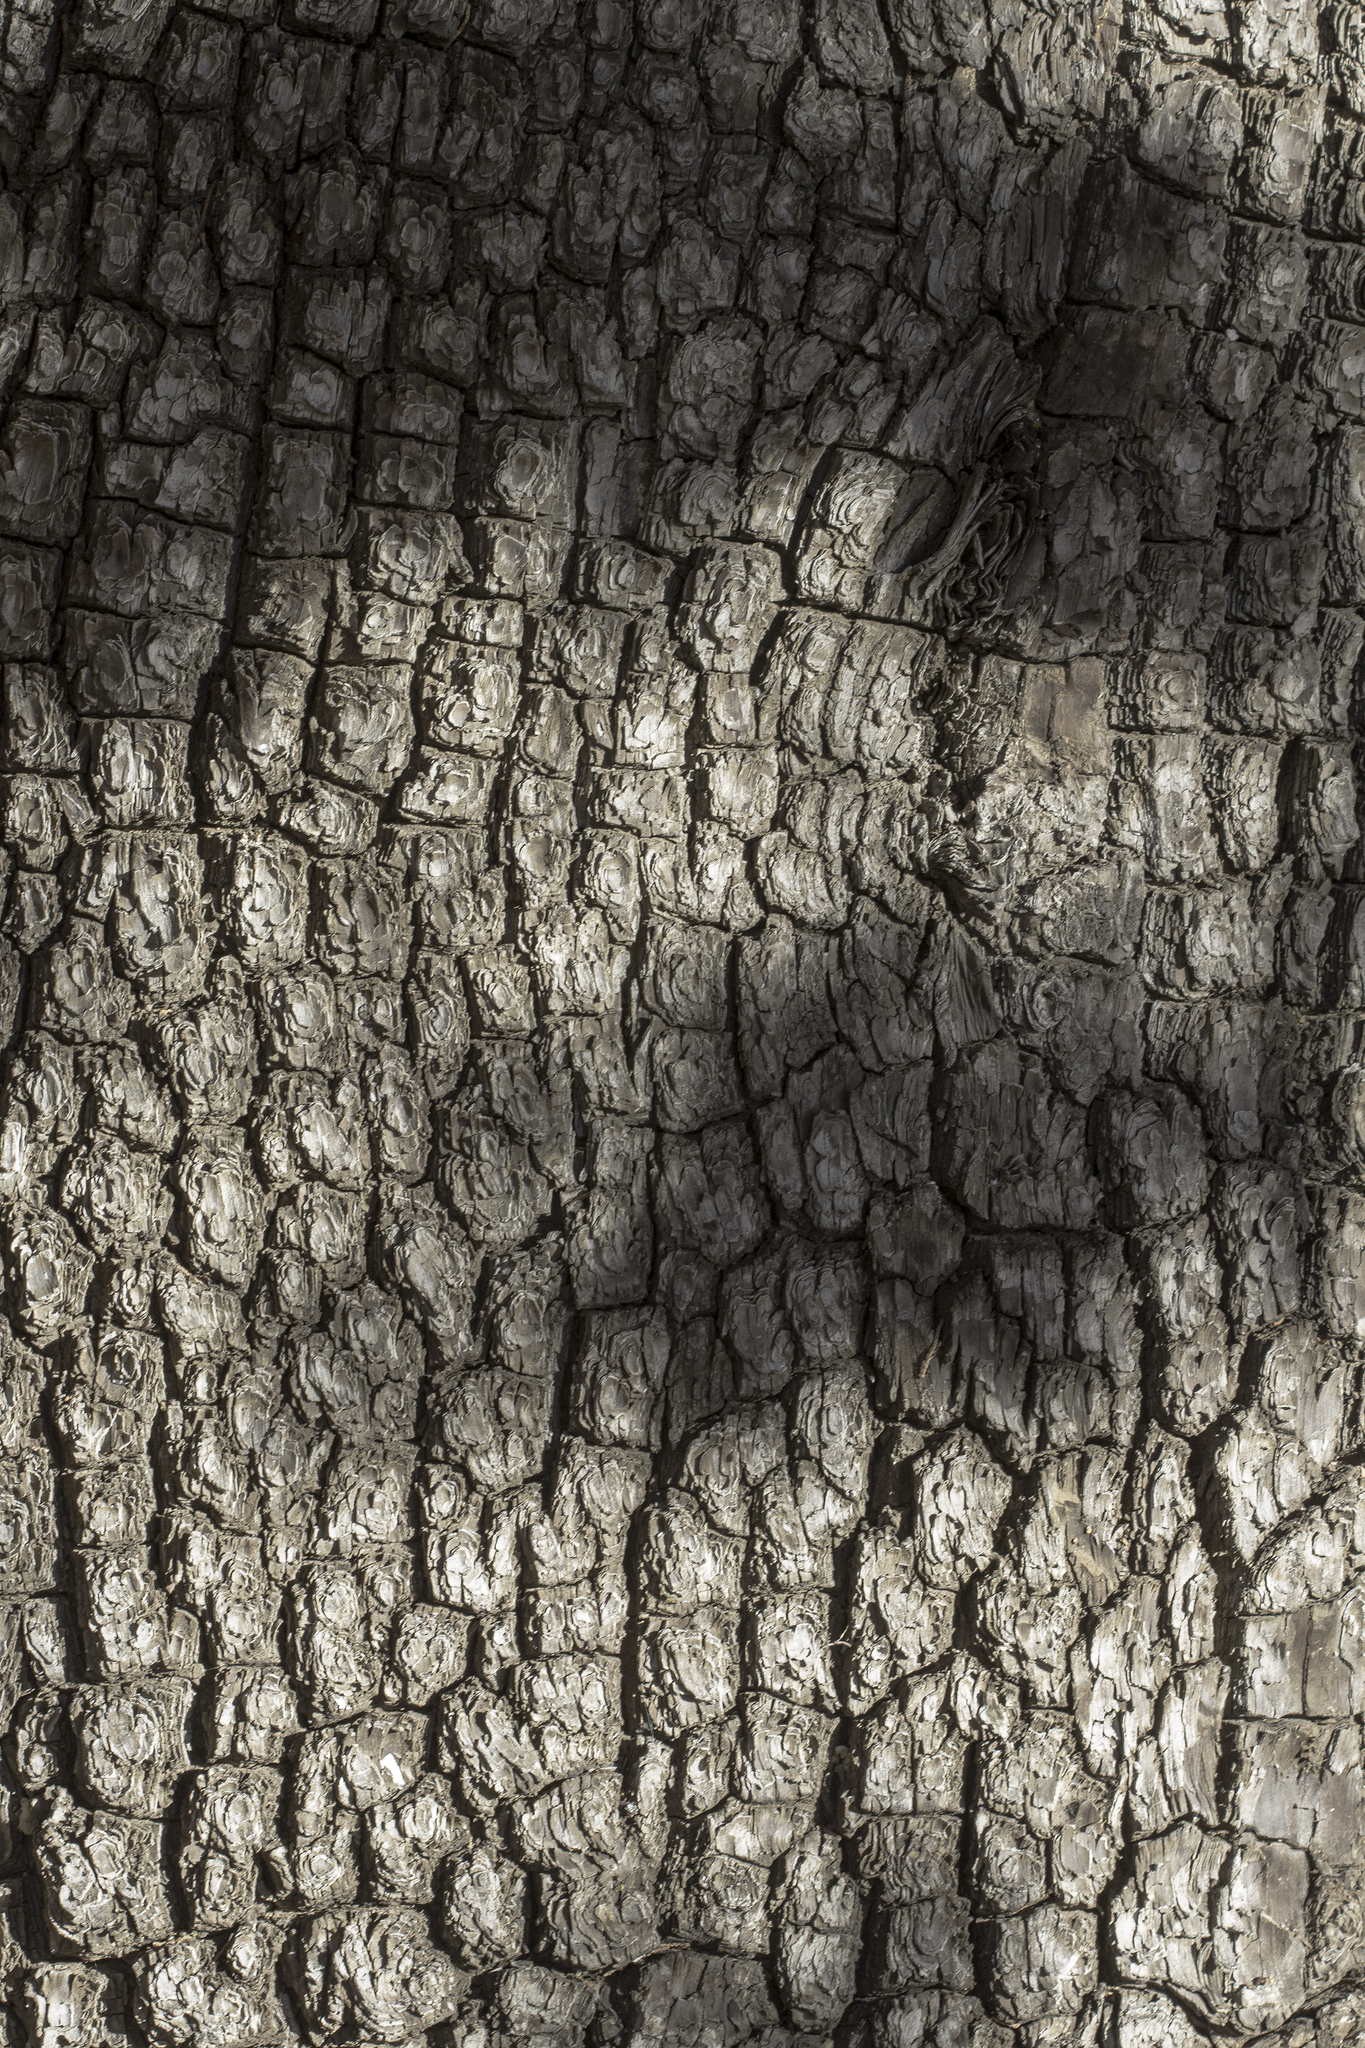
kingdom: Plantae
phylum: Tracheophyta
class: Pinopsida
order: Pinales
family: Cupressaceae
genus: Juniperus
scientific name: Juniperus deppeana
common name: Alligator juniper
